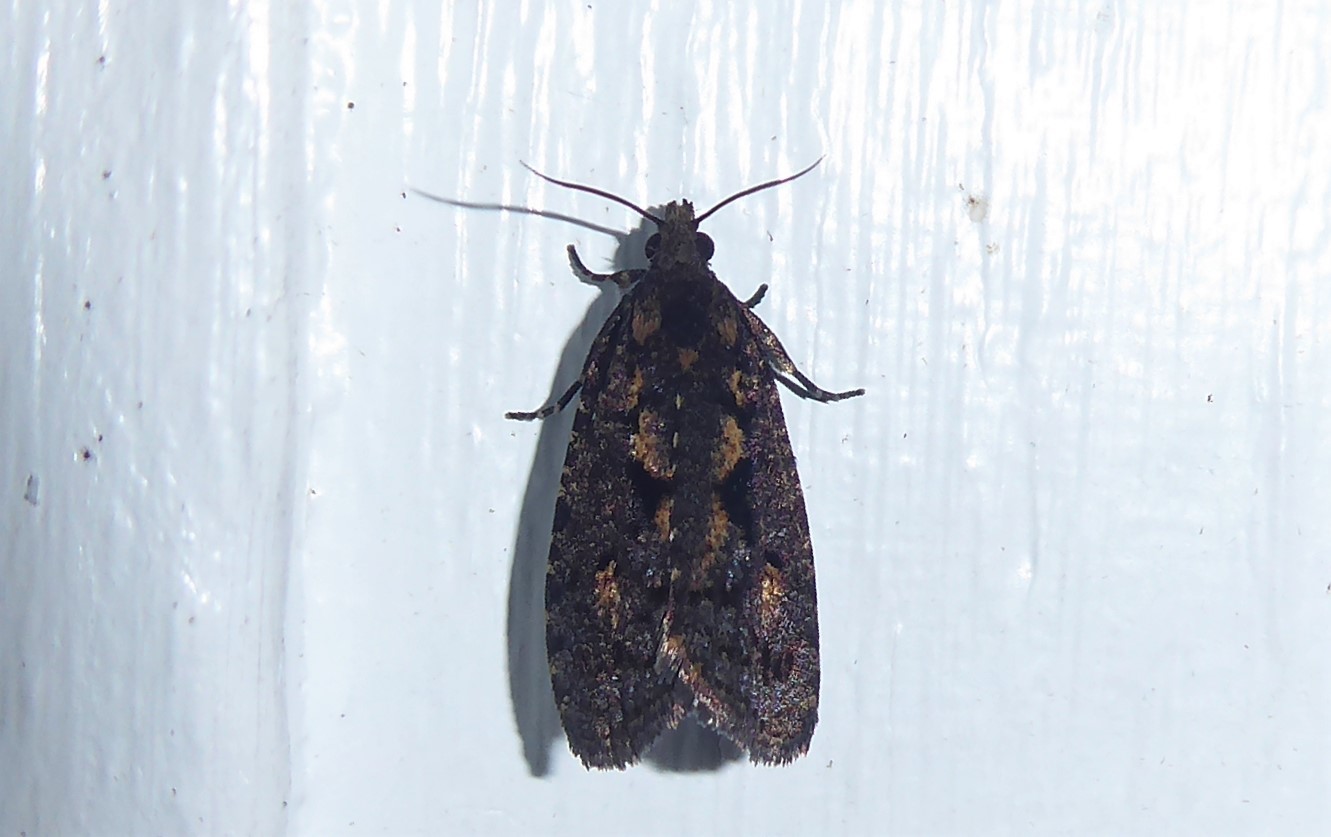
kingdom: Animalia
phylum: Arthropoda
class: Insecta
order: Lepidoptera
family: Tortricidae
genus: Cryptaspasma
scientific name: Cryptaspasma querula
